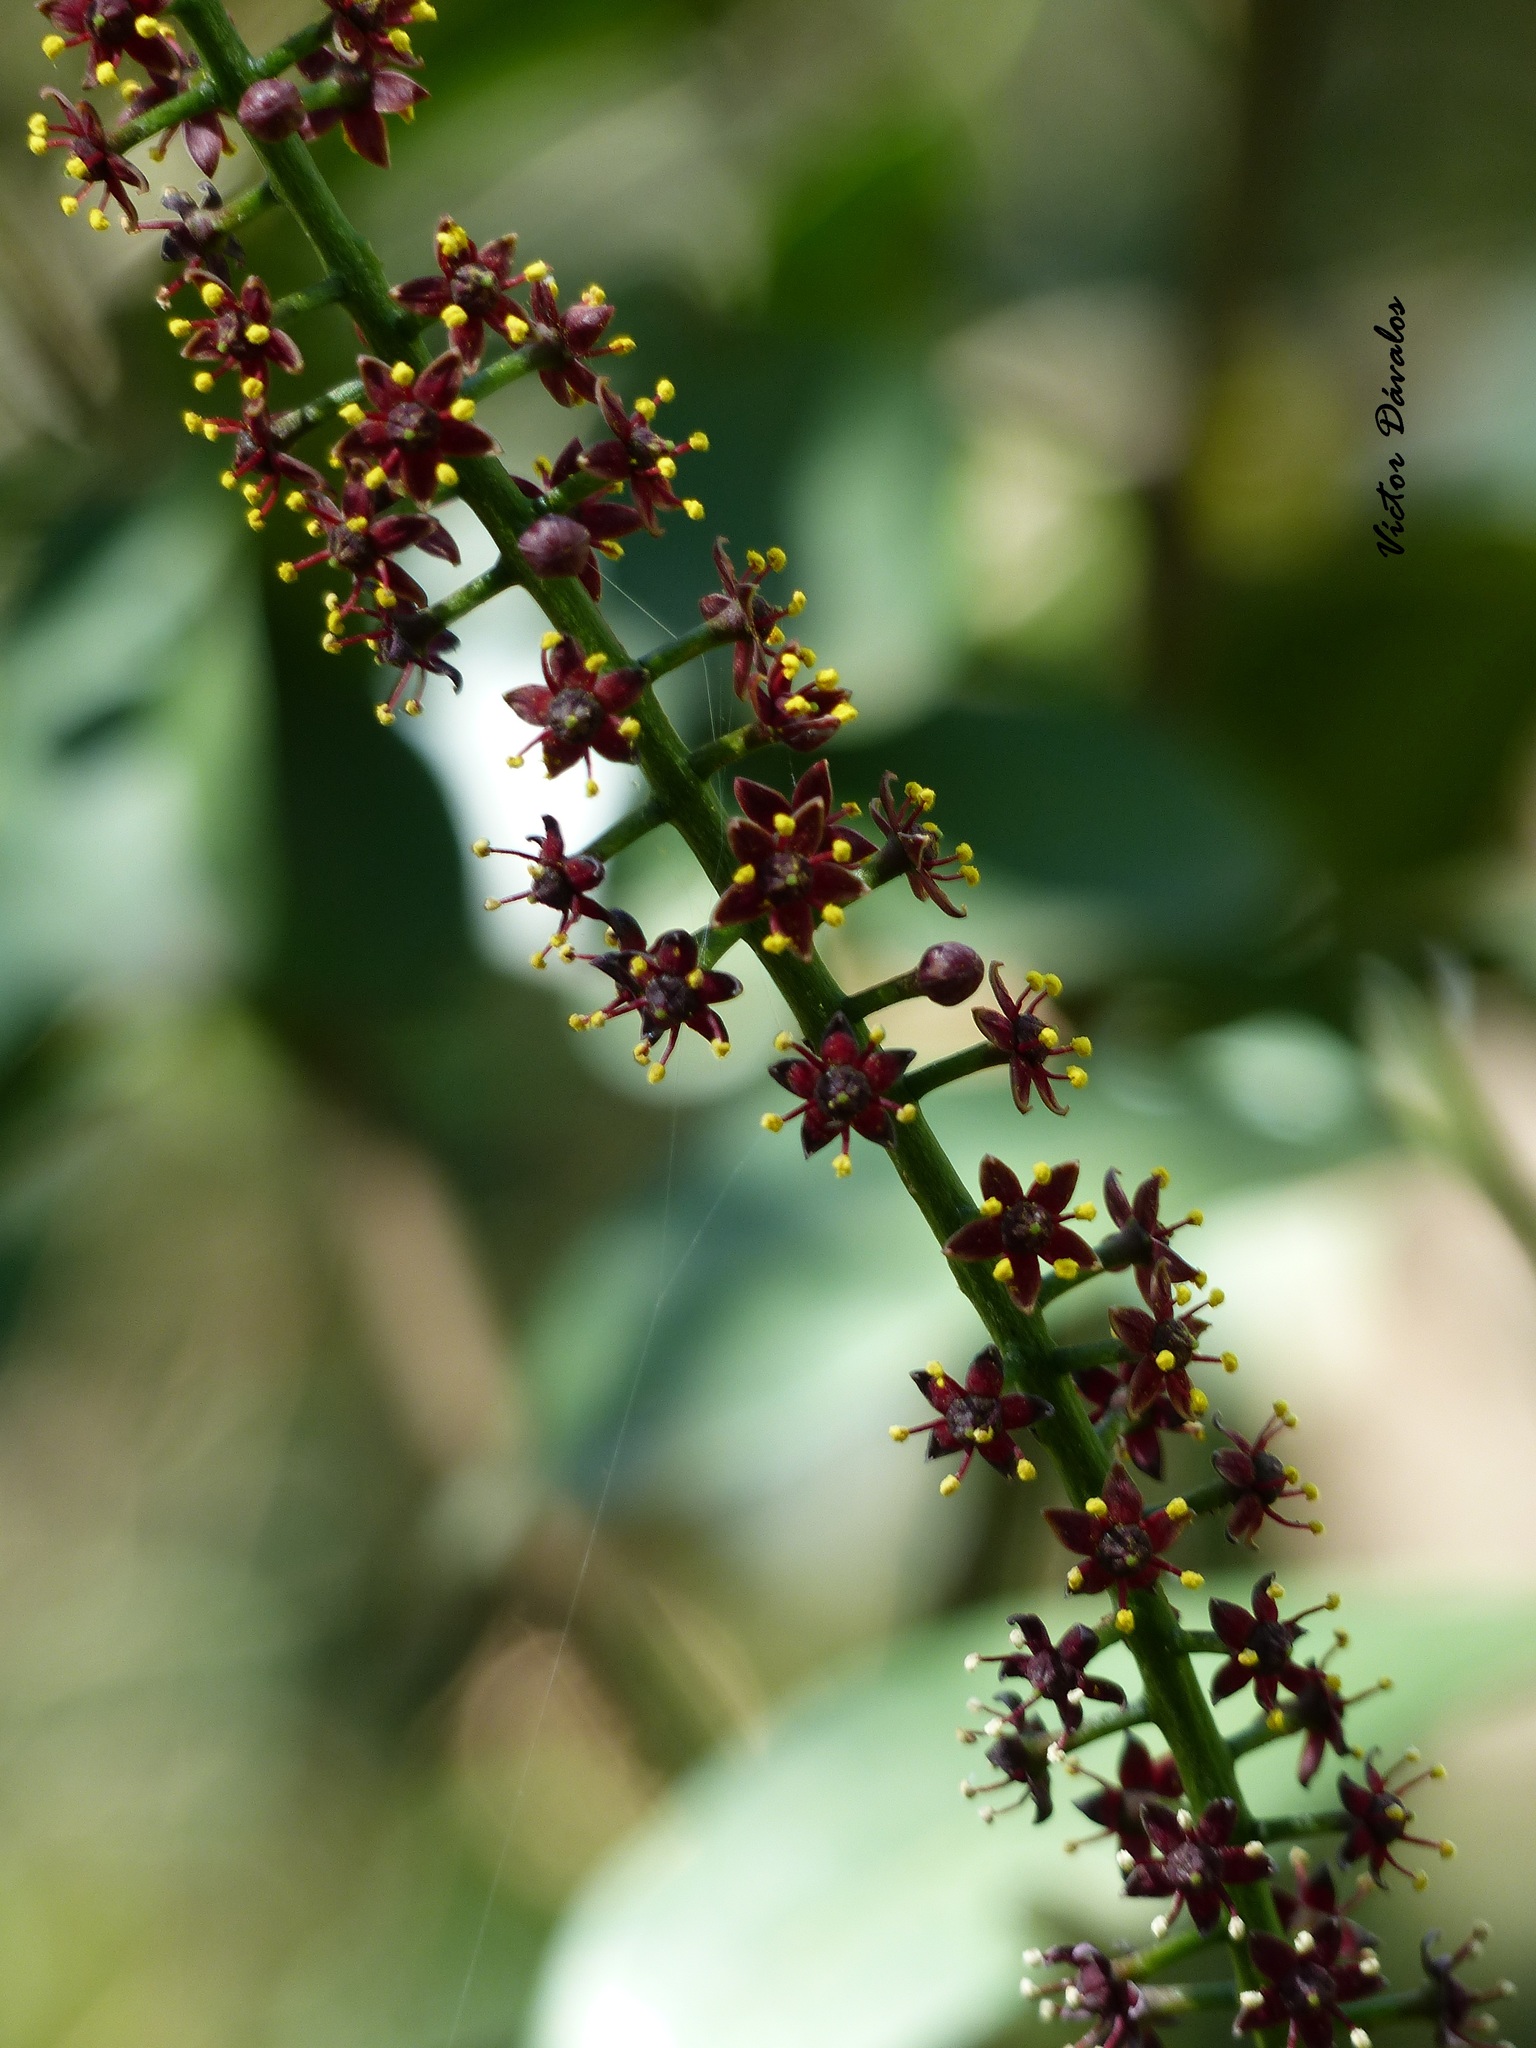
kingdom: Plantae
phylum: Tracheophyta
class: Magnoliopsida
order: Sapindales
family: Rutaceae
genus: Pilocarpus
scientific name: Pilocarpus pennatifolius
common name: Paraguay jaborandi
